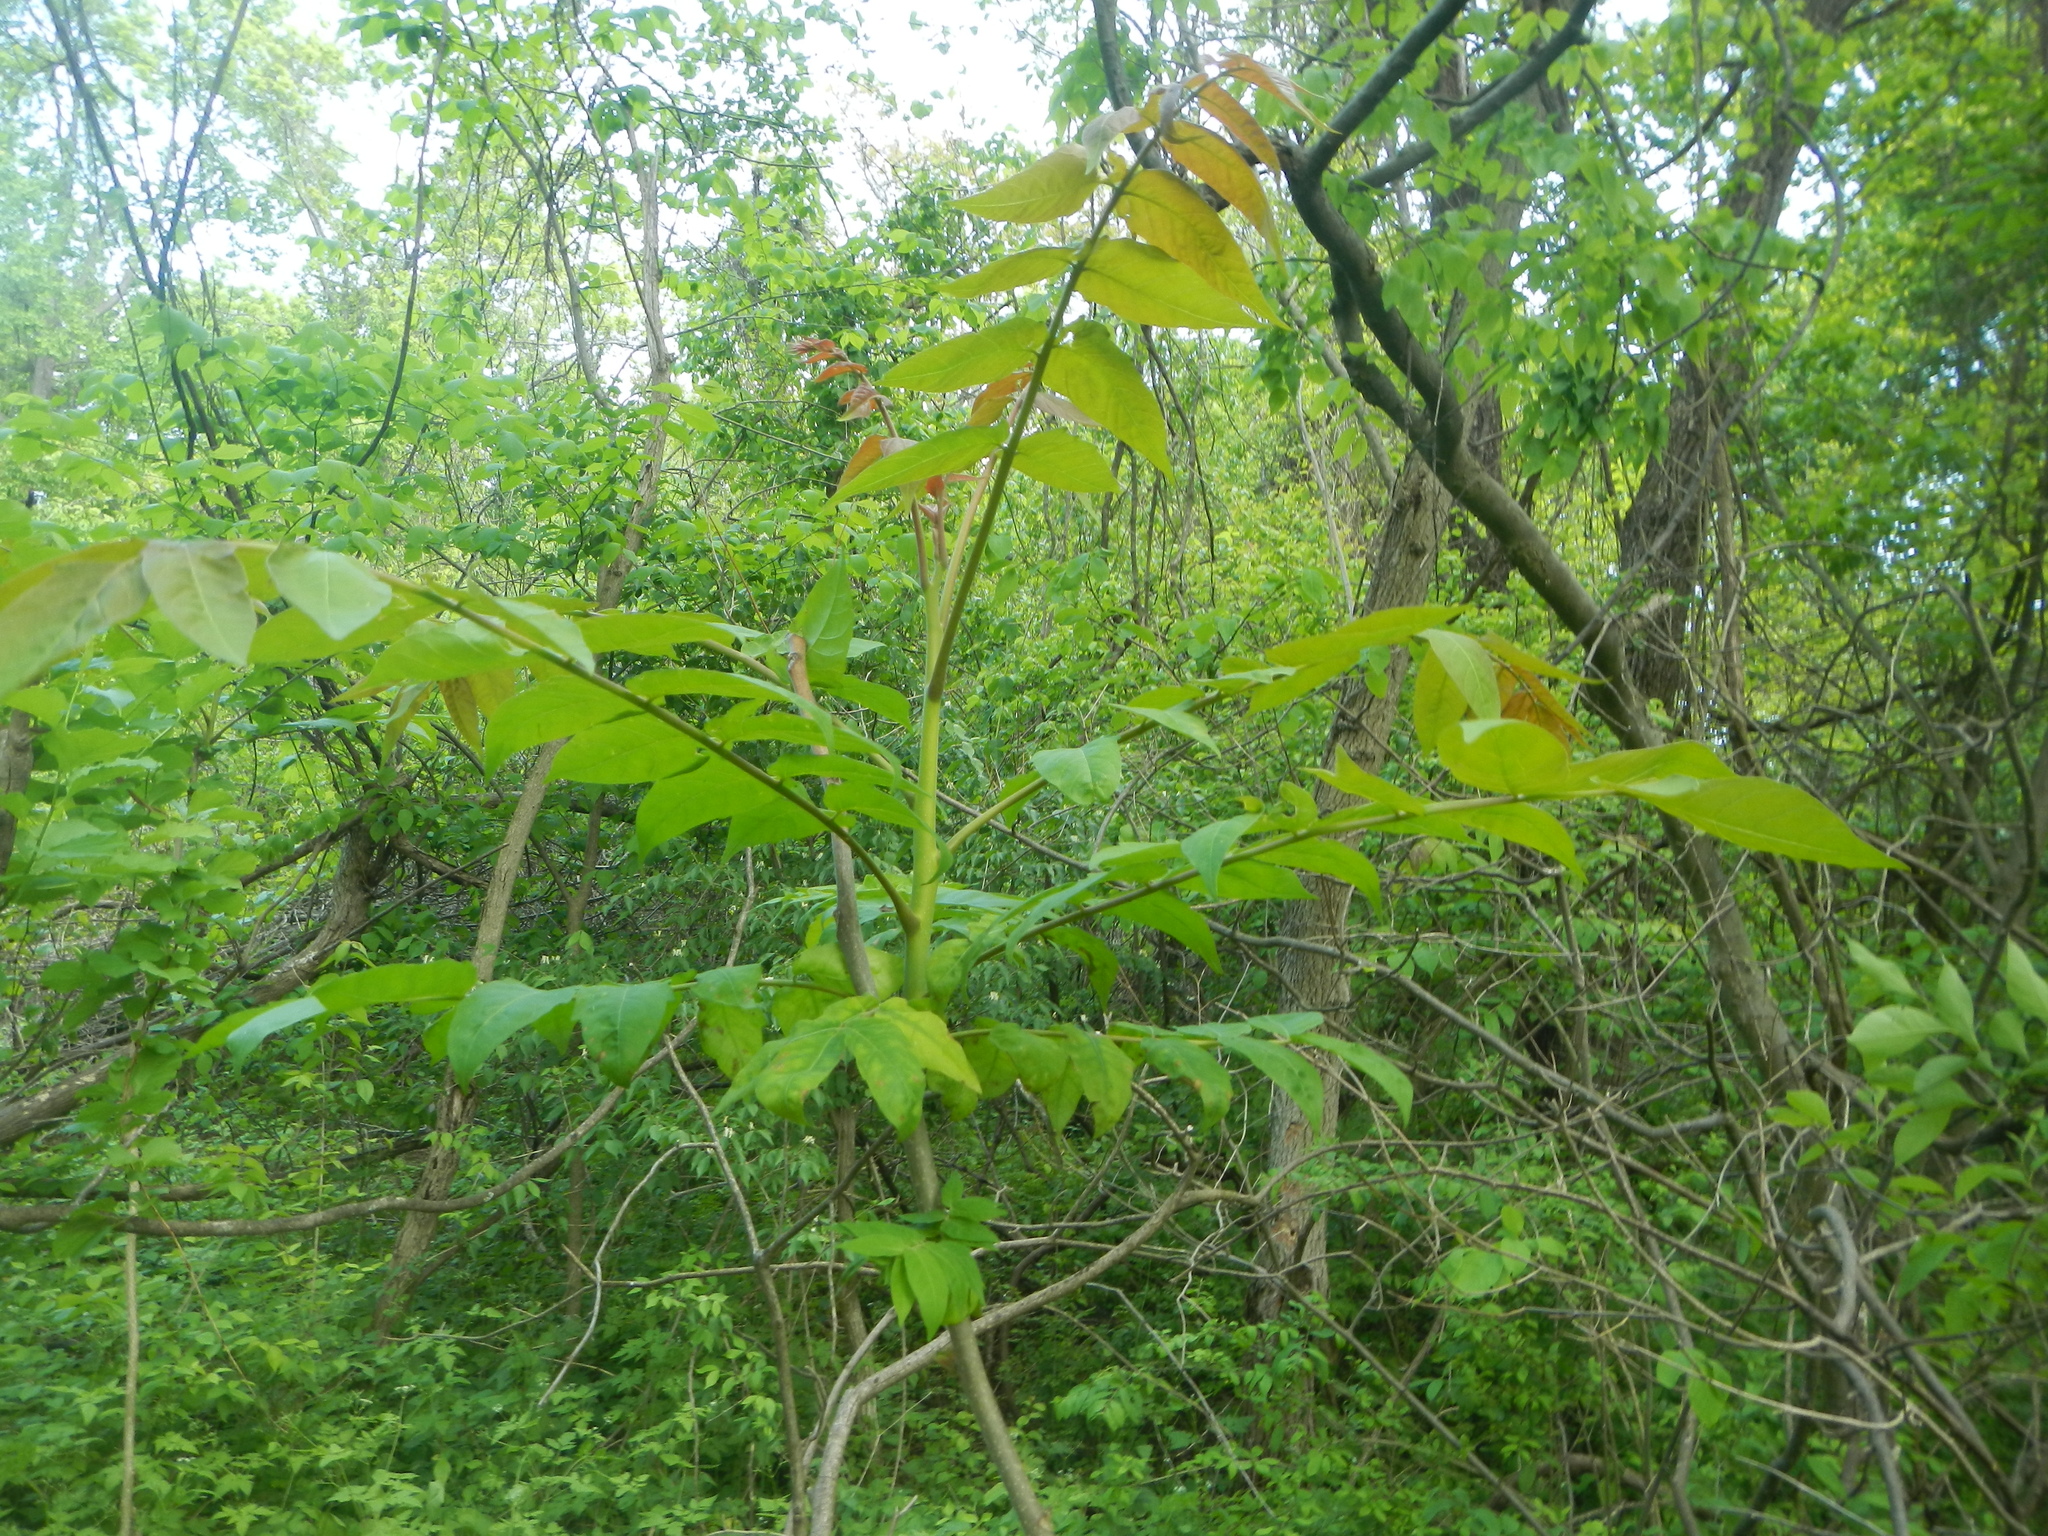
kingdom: Plantae
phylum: Tracheophyta
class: Magnoliopsida
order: Sapindales
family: Simaroubaceae
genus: Ailanthus
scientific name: Ailanthus altissima
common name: Tree-of-heaven
